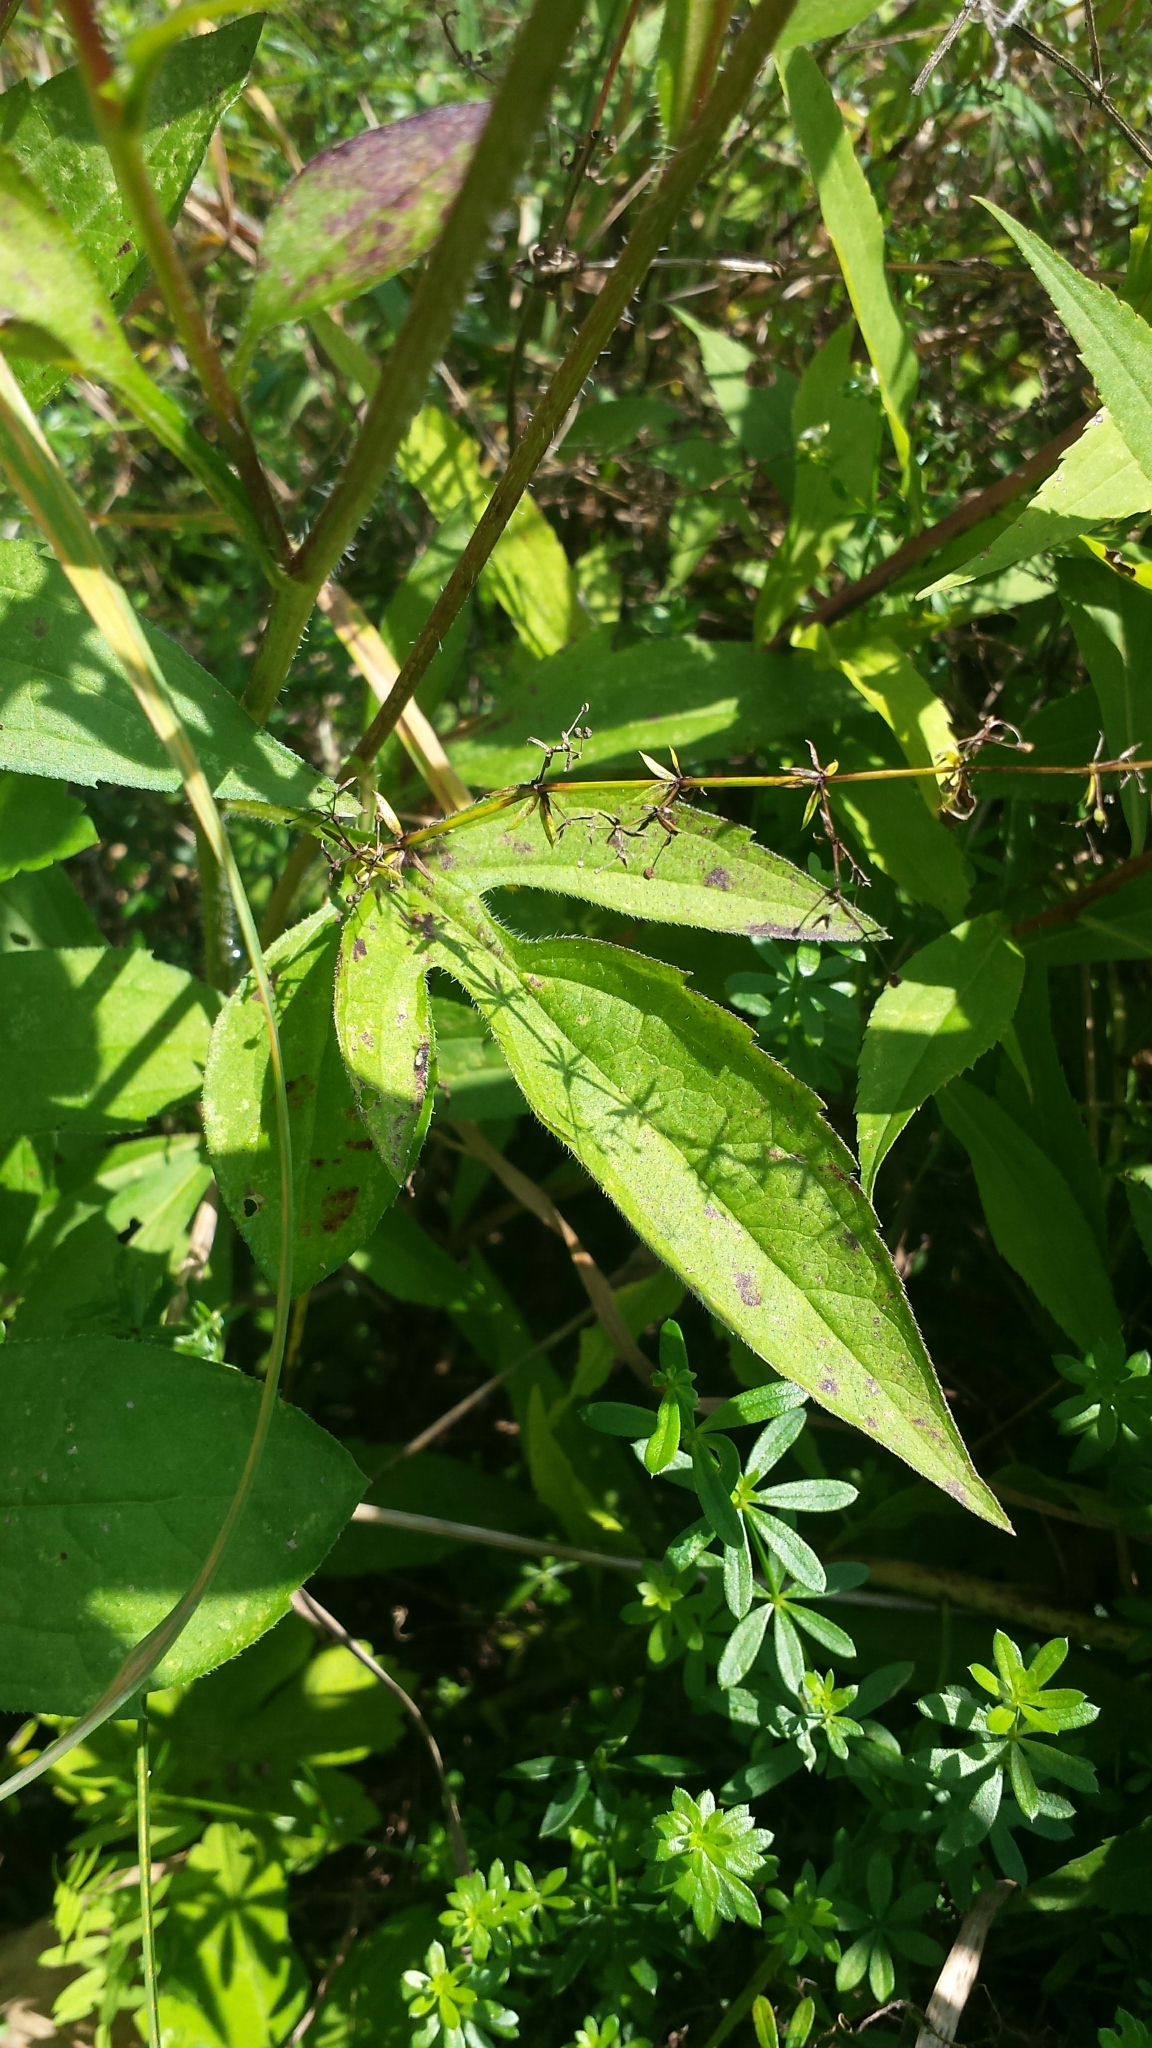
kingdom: Plantae
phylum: Tracheophyta
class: Magnoliopsida
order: Asterales
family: Asteraceae
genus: Rudbeckia
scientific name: Rudbeckia triloba
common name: Thin-leaved coneflower
